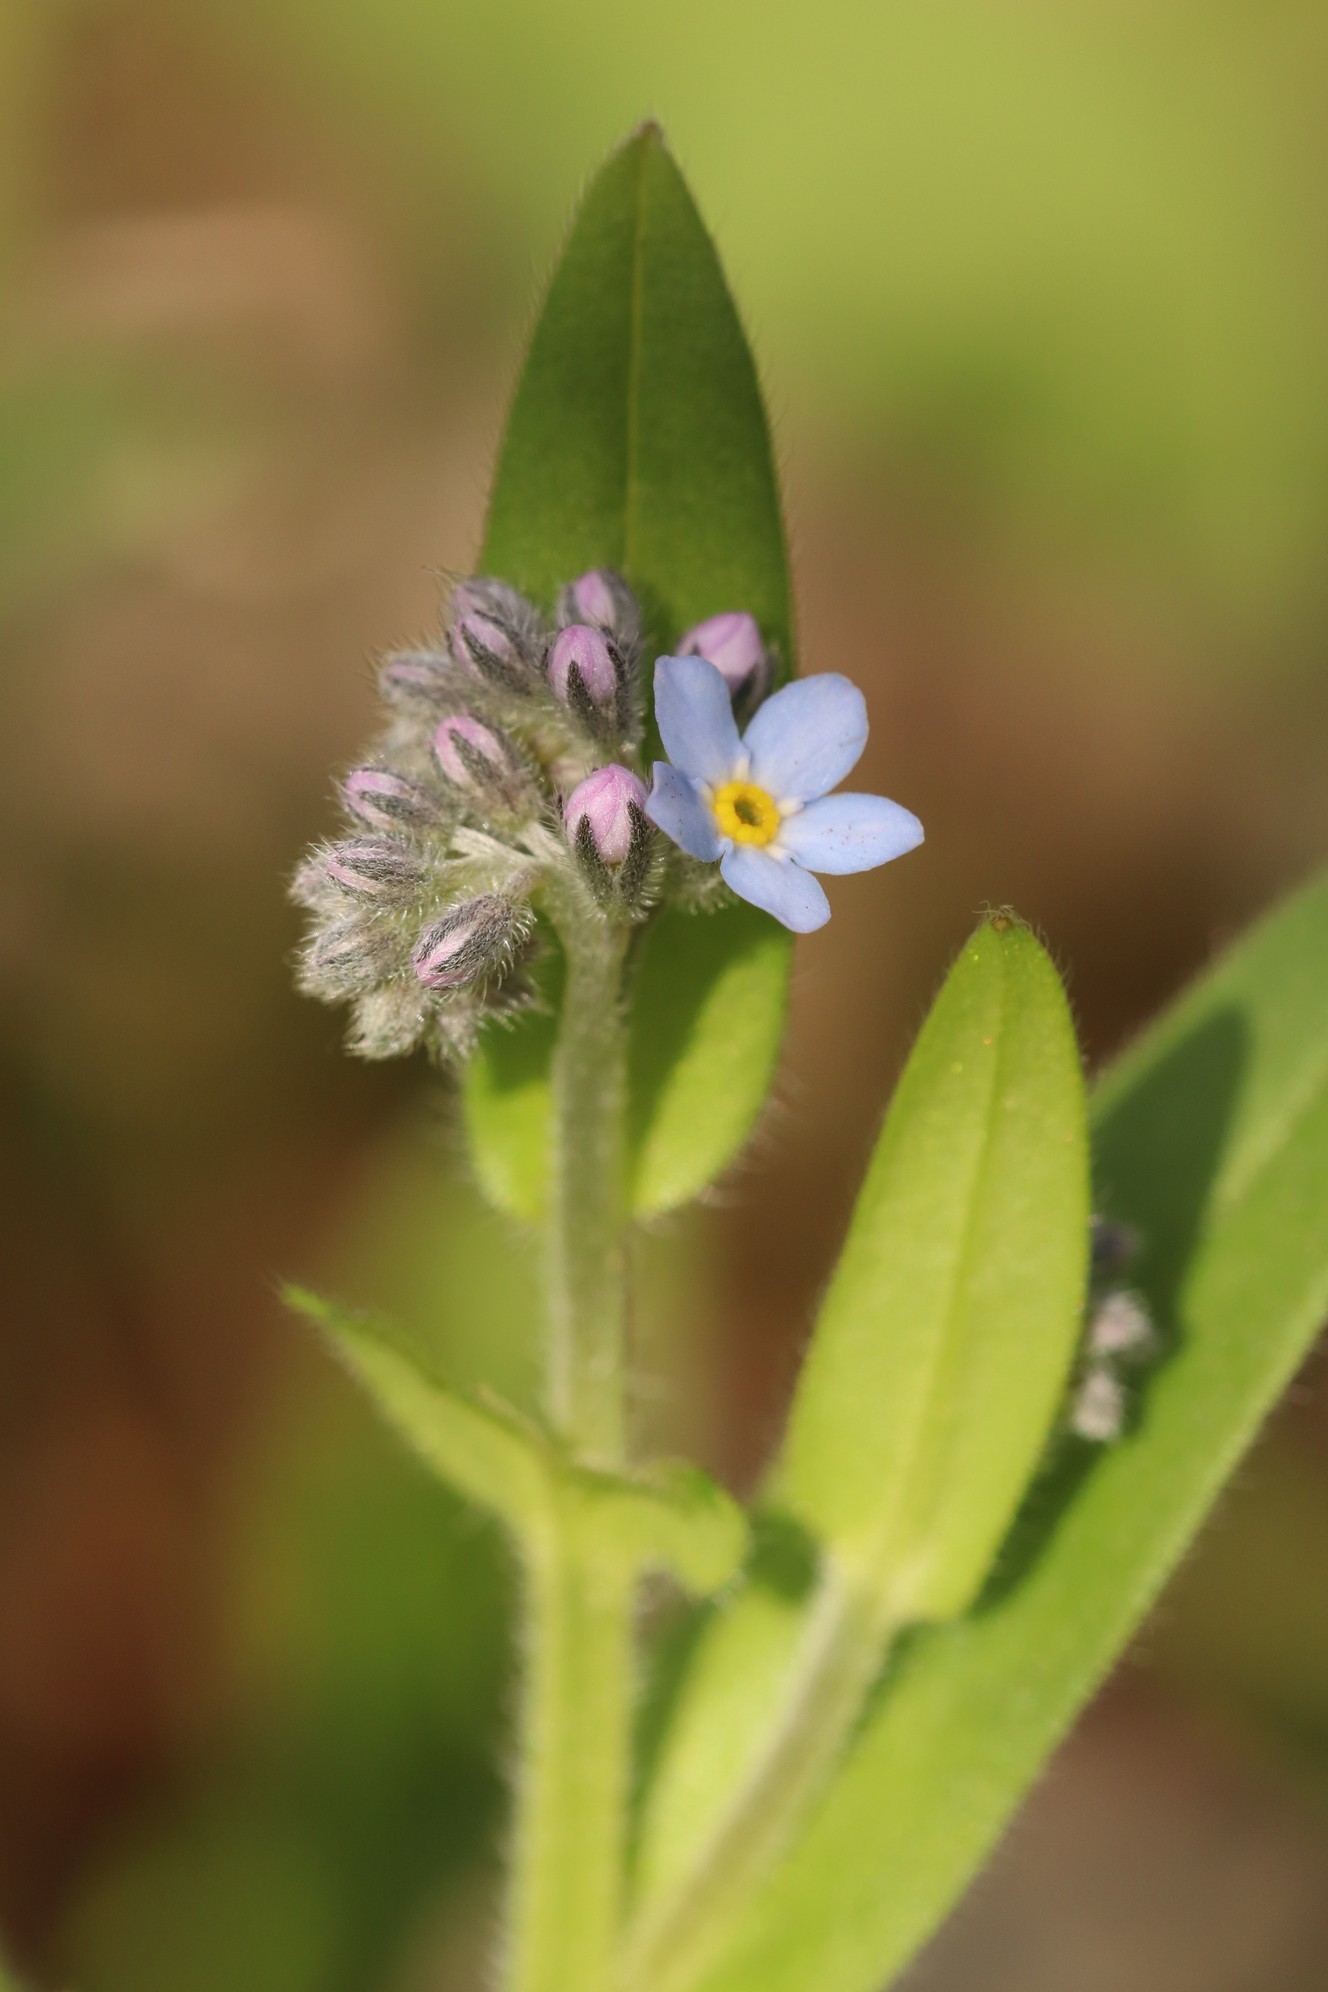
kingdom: Plantae
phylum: Tracheophyta
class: Magnoliopsida
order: Boraginales
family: Boraginaceae
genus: Myosotis
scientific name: Myosotis krylovii
